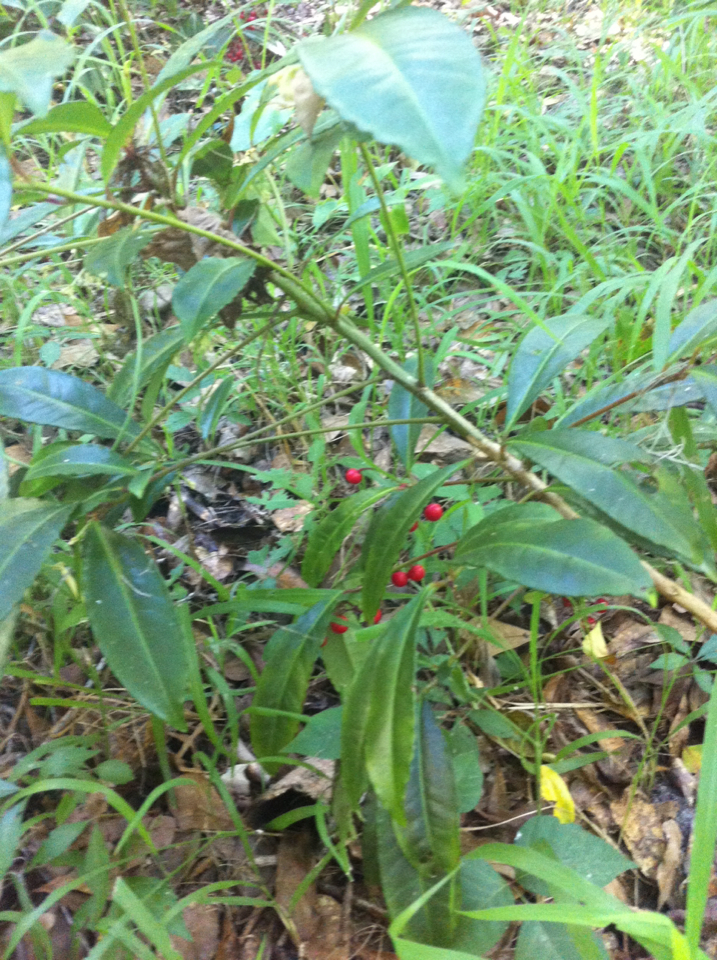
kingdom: Plantae
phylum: Tracheophyta
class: Magnoliopsida
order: Ericales
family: Primulaceae
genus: Ardisia
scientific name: Ardisia crenata
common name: Hen's eyes
